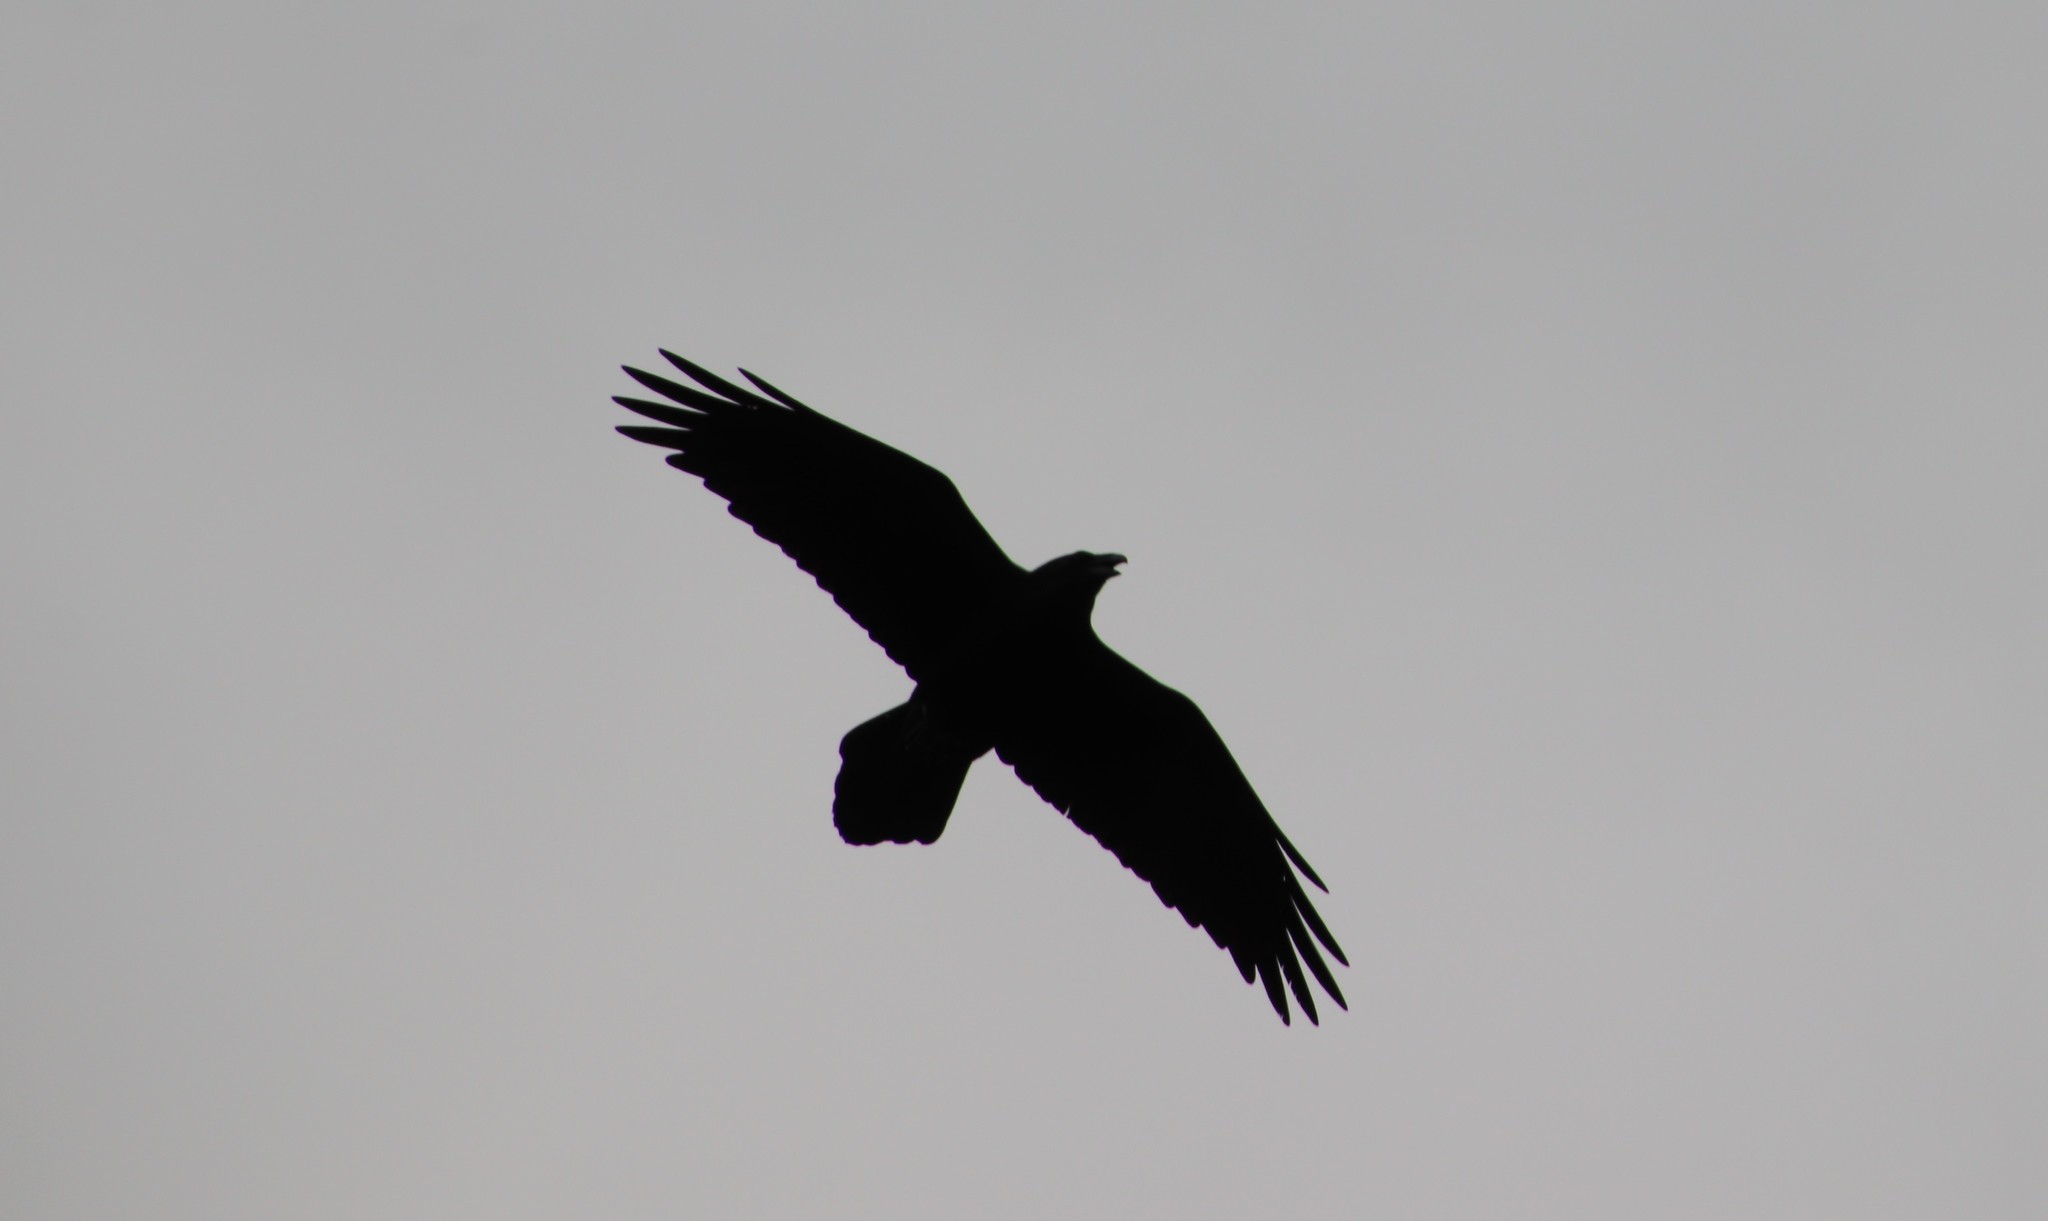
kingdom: Animalia
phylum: Chordata
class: Aves
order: Passeriformes
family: Corvidae
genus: Corvus
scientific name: Corvus corax
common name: Common raven
